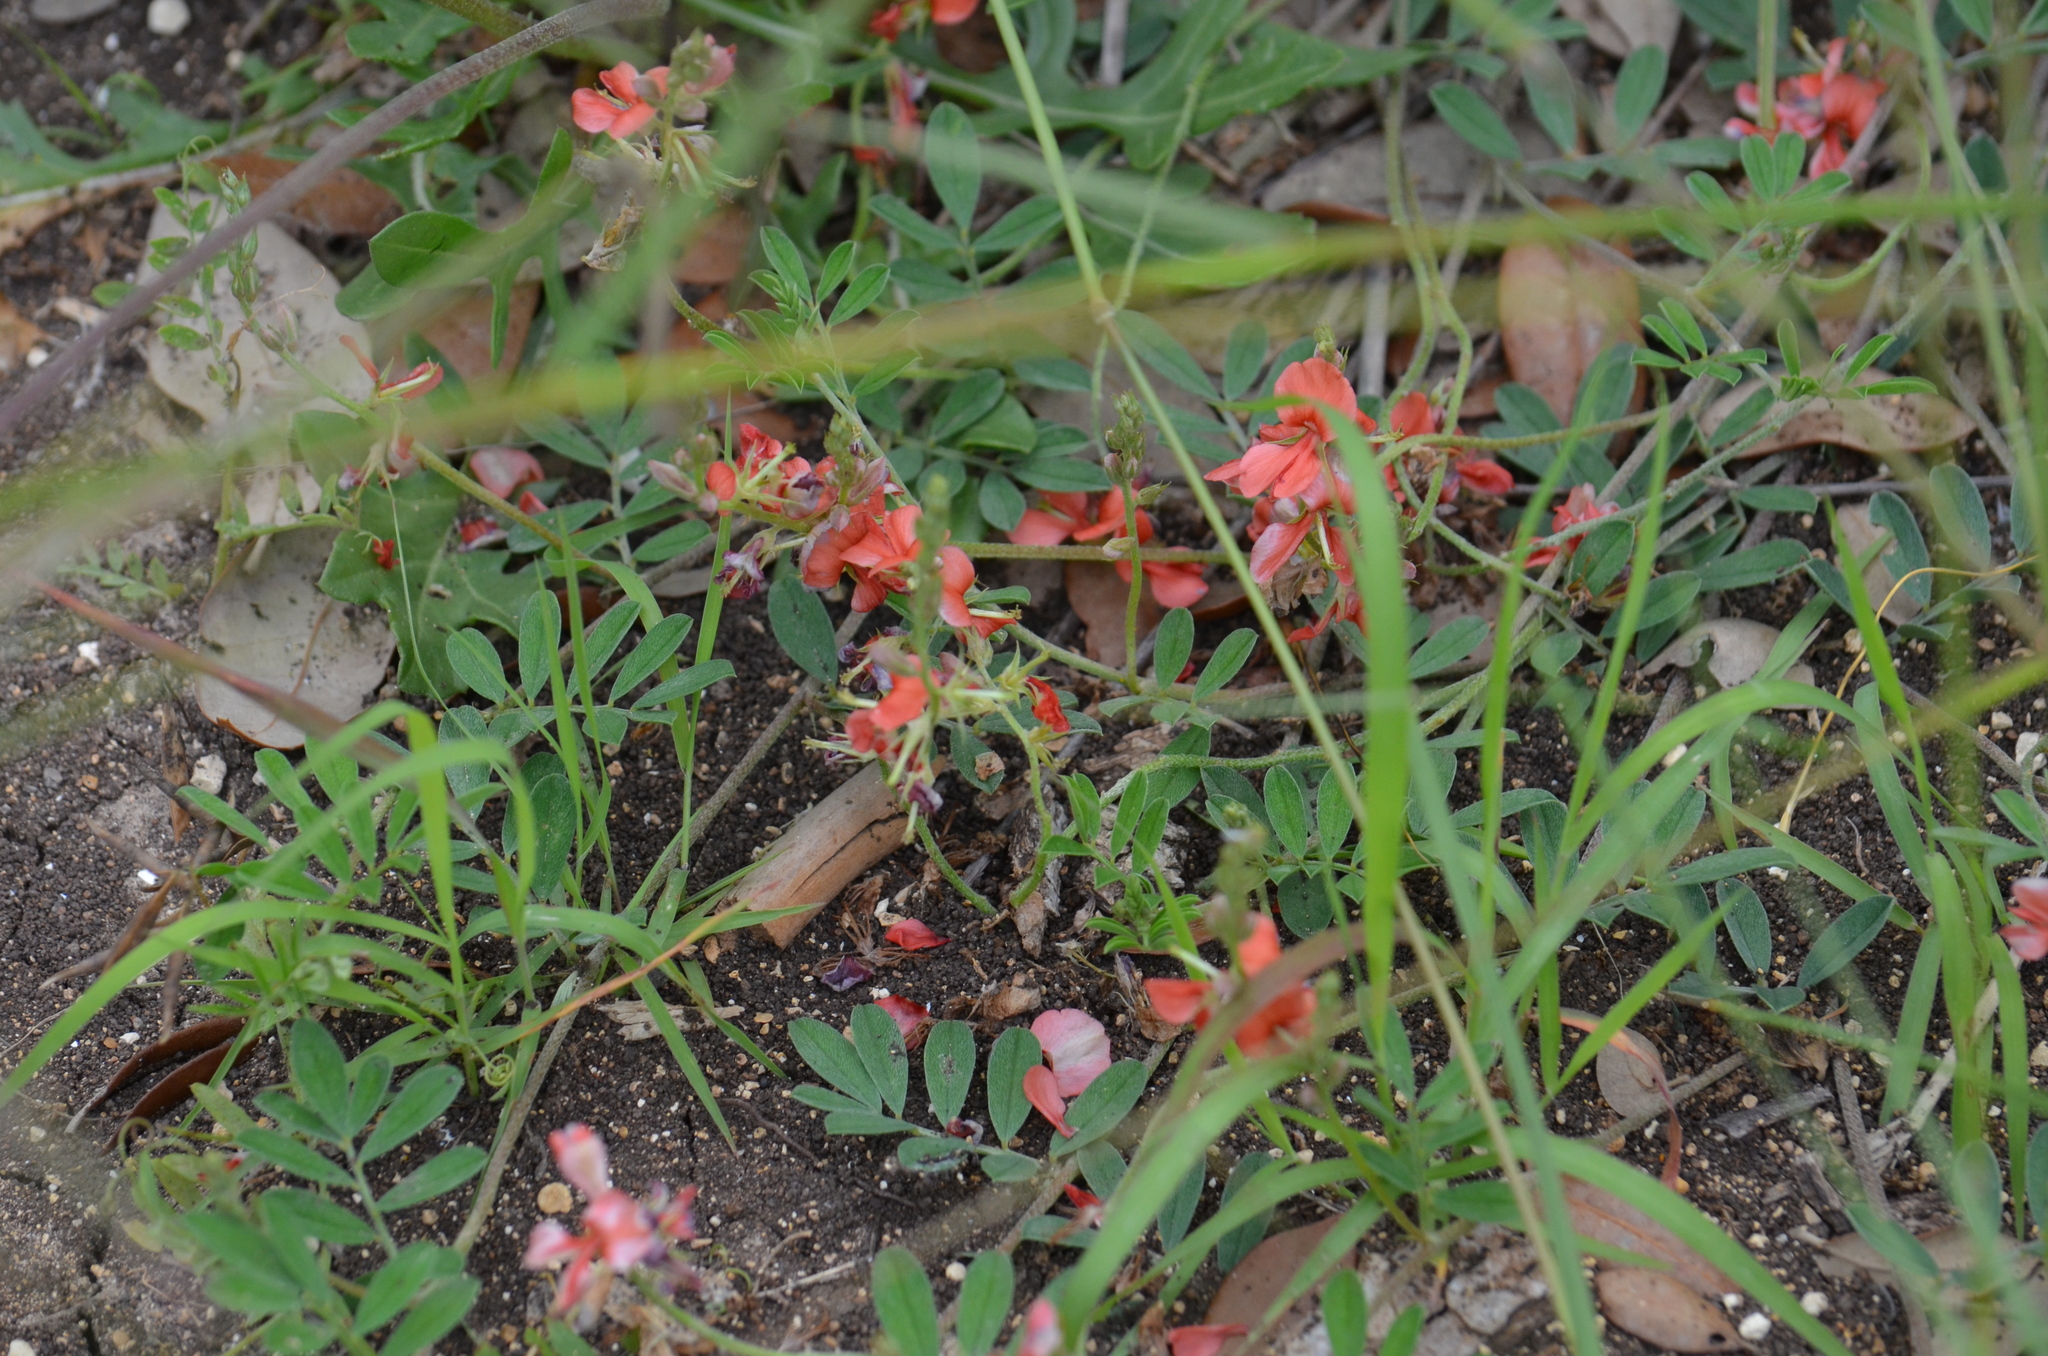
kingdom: Plantae
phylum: Tracheophyta
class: Magnoliopsida
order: Fabales
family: Fabaceae
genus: Indigofera
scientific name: Indigofera miniata
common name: Coast indigo
